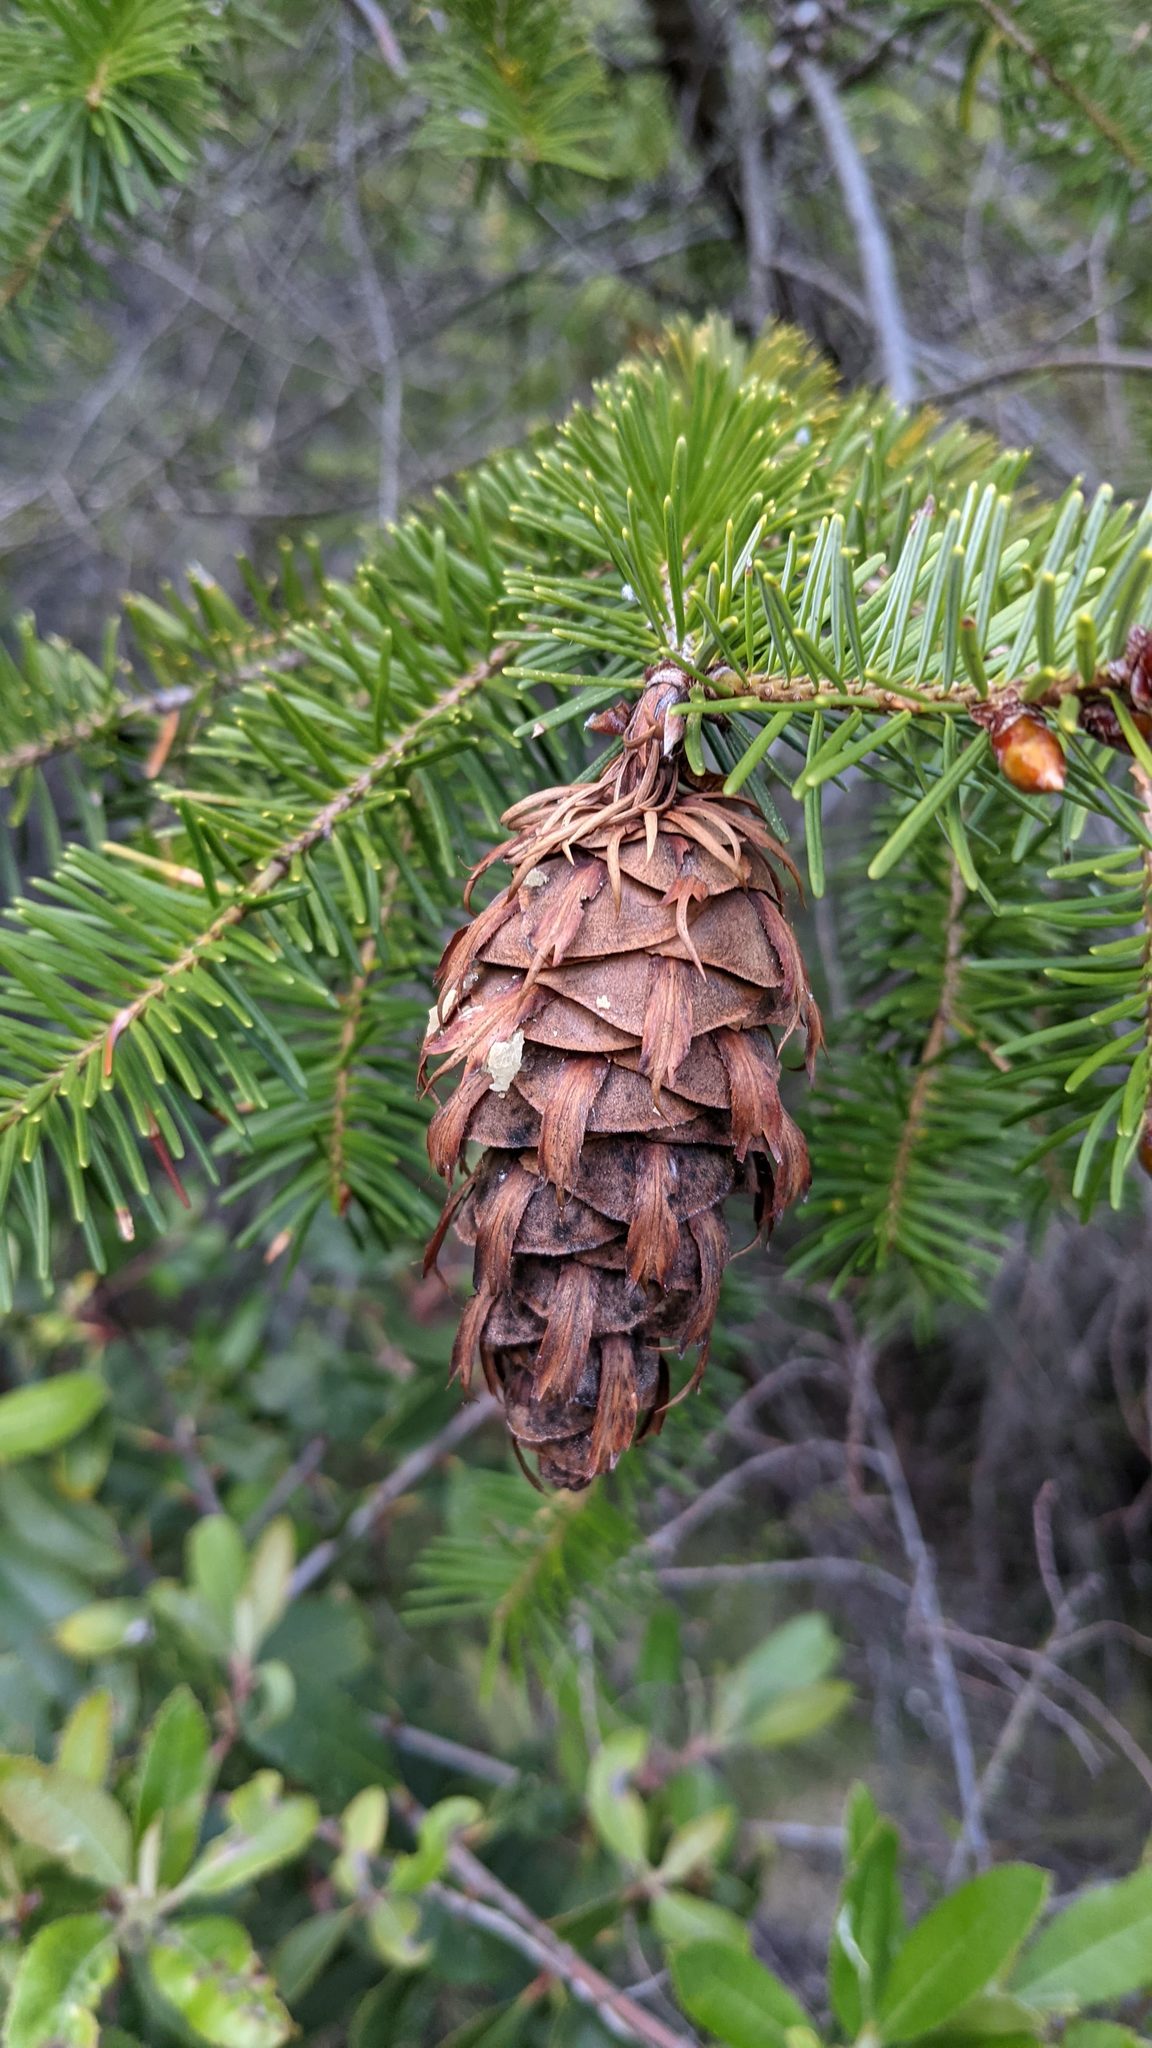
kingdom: Plantae
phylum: Tracheophyta
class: Pinopsida
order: Pinales
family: Pinaceae
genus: Pseudotsuga
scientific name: Pseudotsuga menziesii
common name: Douglas fir
